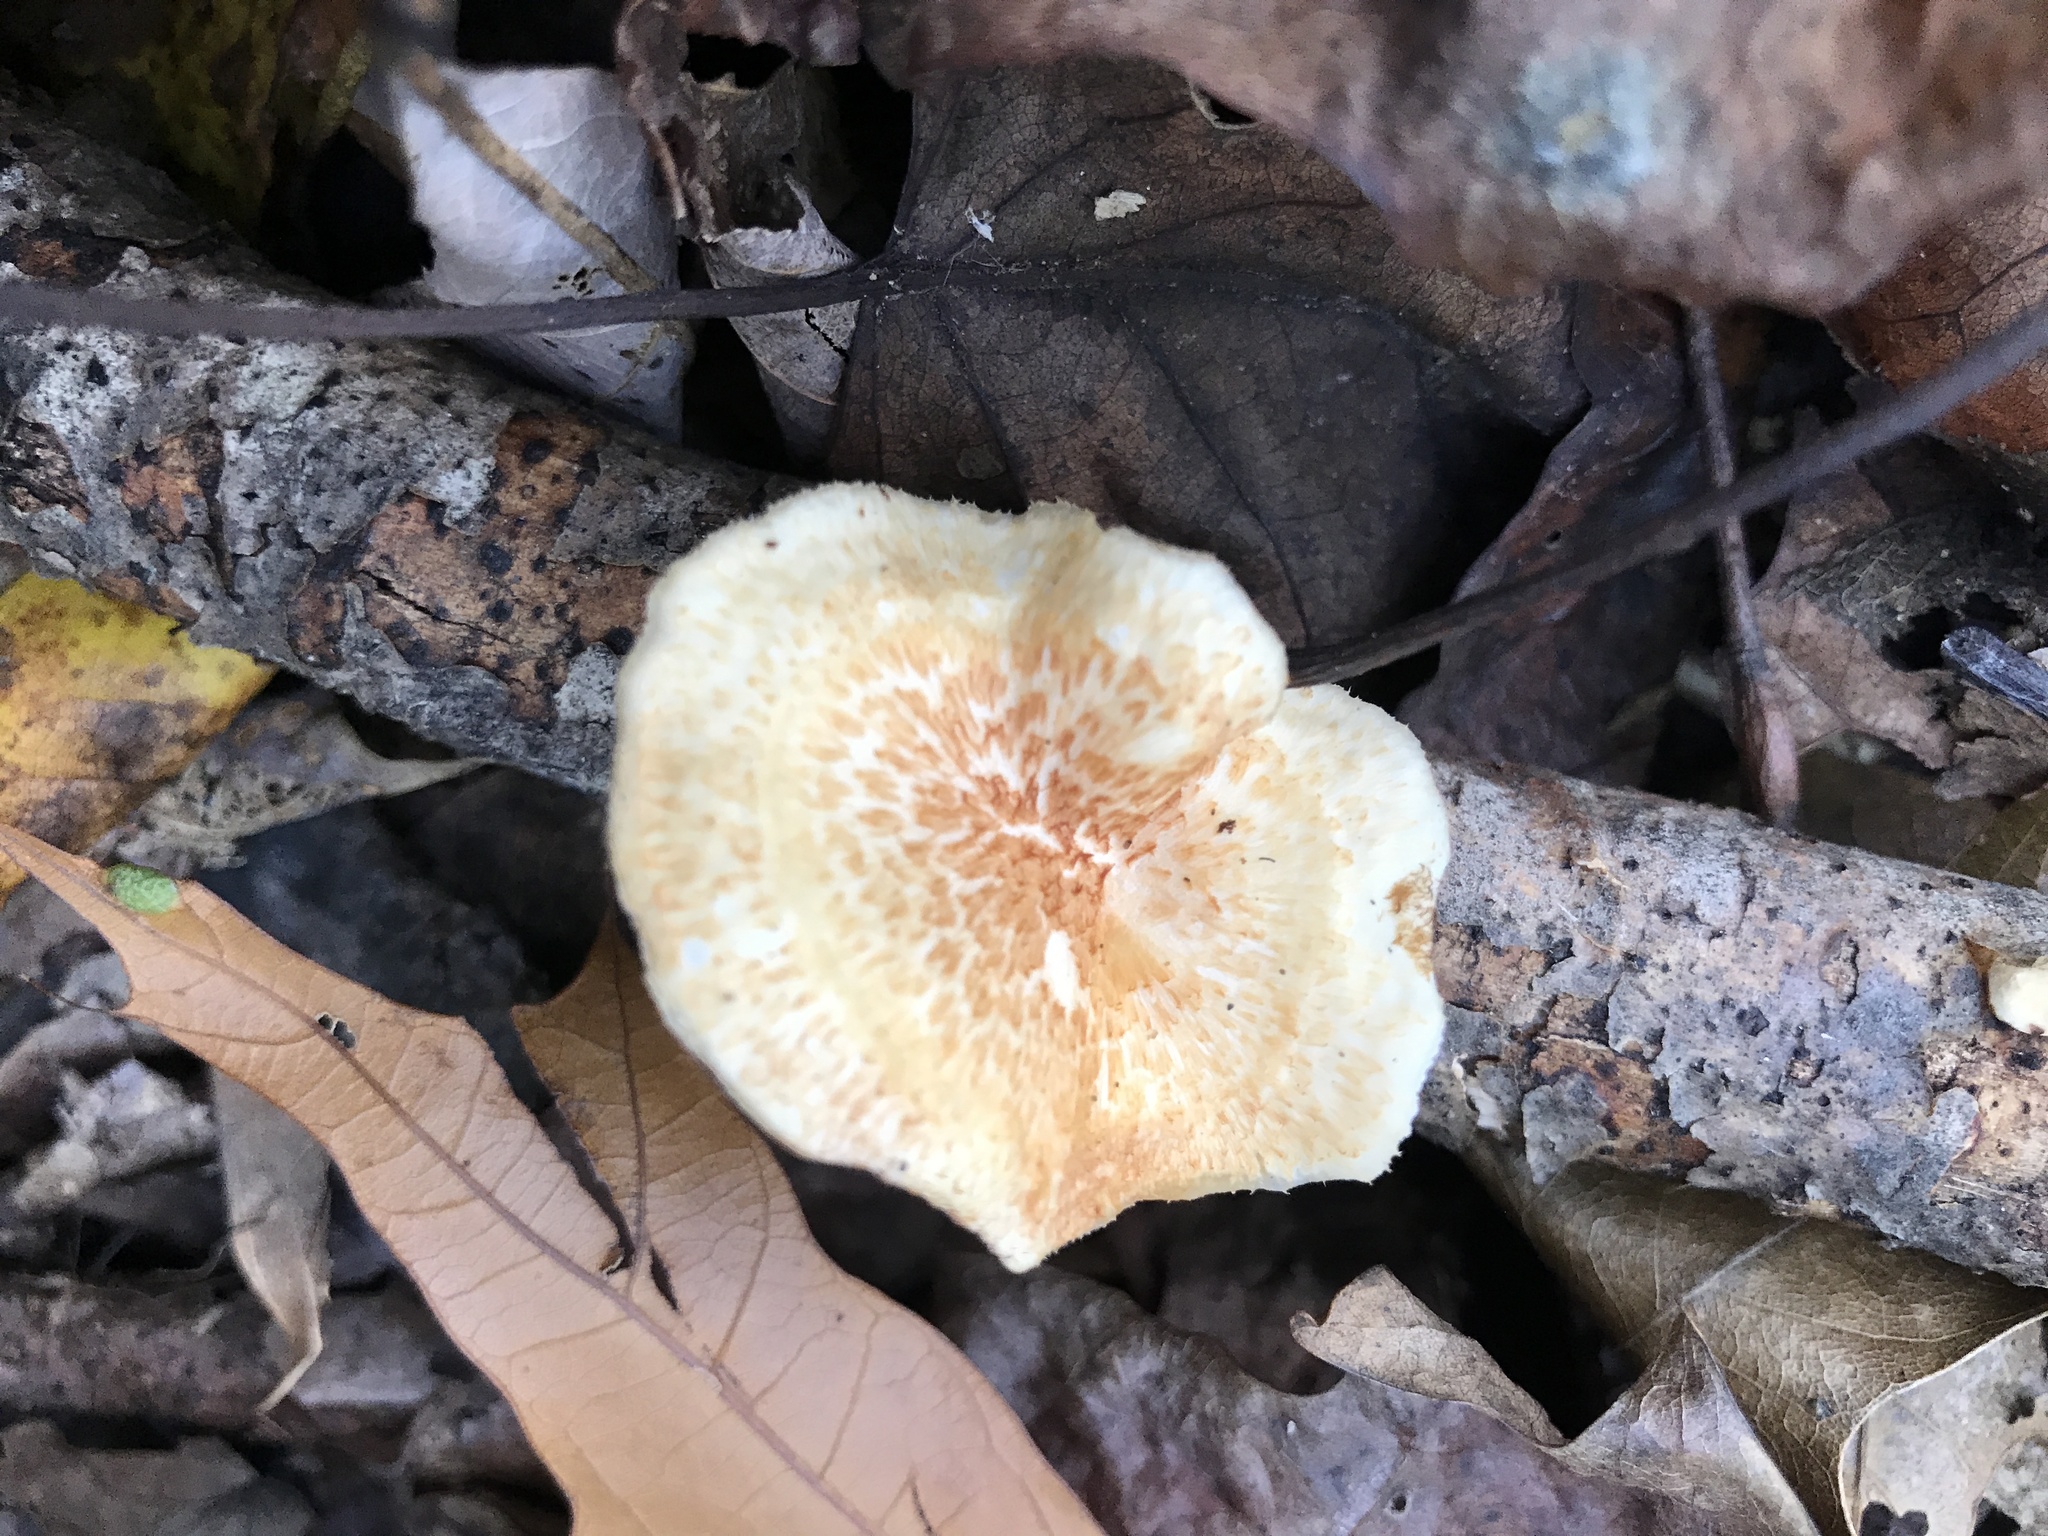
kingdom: Fungi
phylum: Basidiomycota
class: Agaricomycetes
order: Polyporales
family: Polyporaceae
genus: Neofavolus
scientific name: Neofavolus alveolaris
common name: Hexagonal-pored polypore
